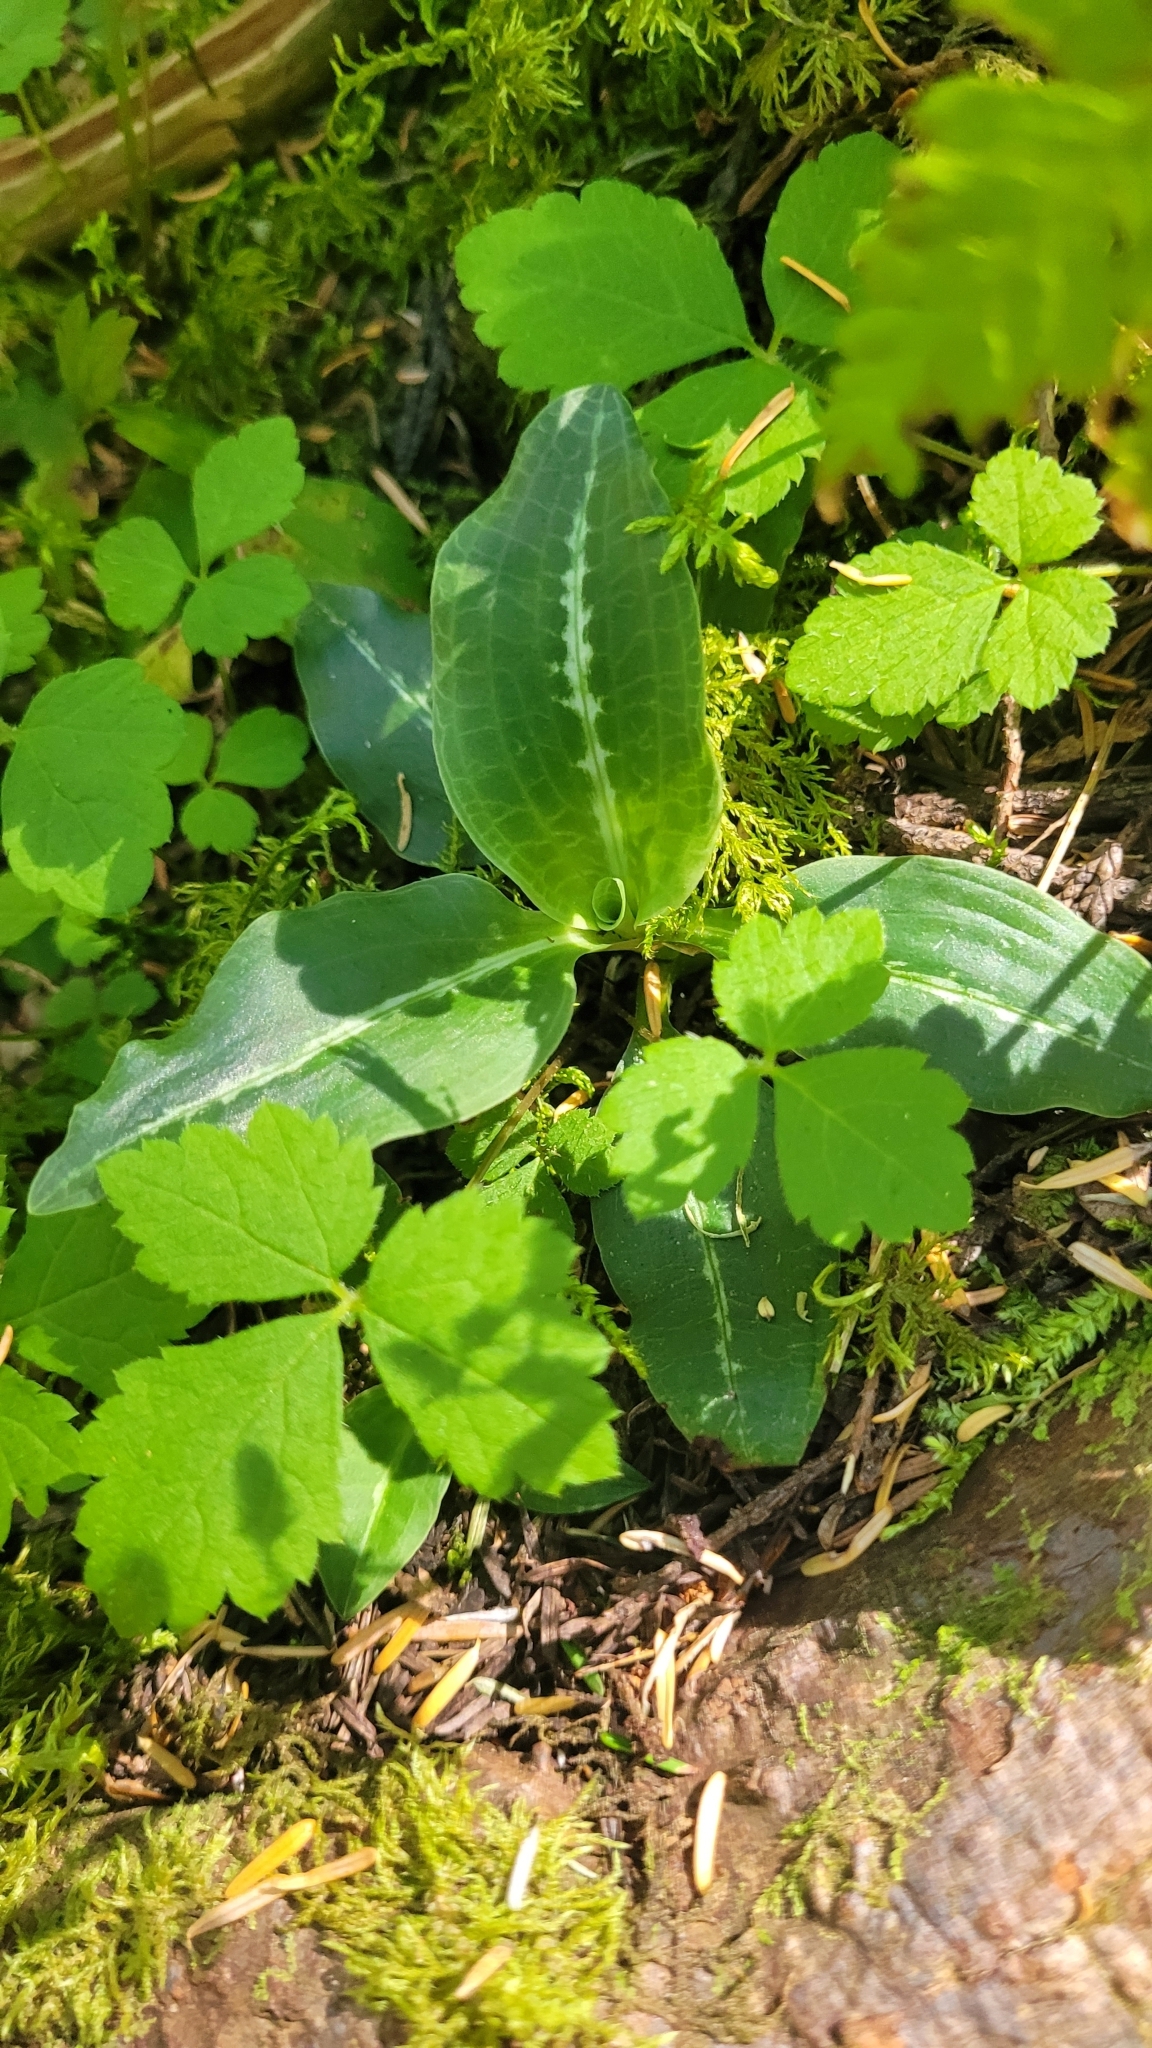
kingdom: Plantae
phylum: Tracheophyta
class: Liliopsida
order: Asparagales
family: Orchidaceae
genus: Goodyera
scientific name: Goodyera oblongifolia
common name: Giant rattlesnake-plantain
